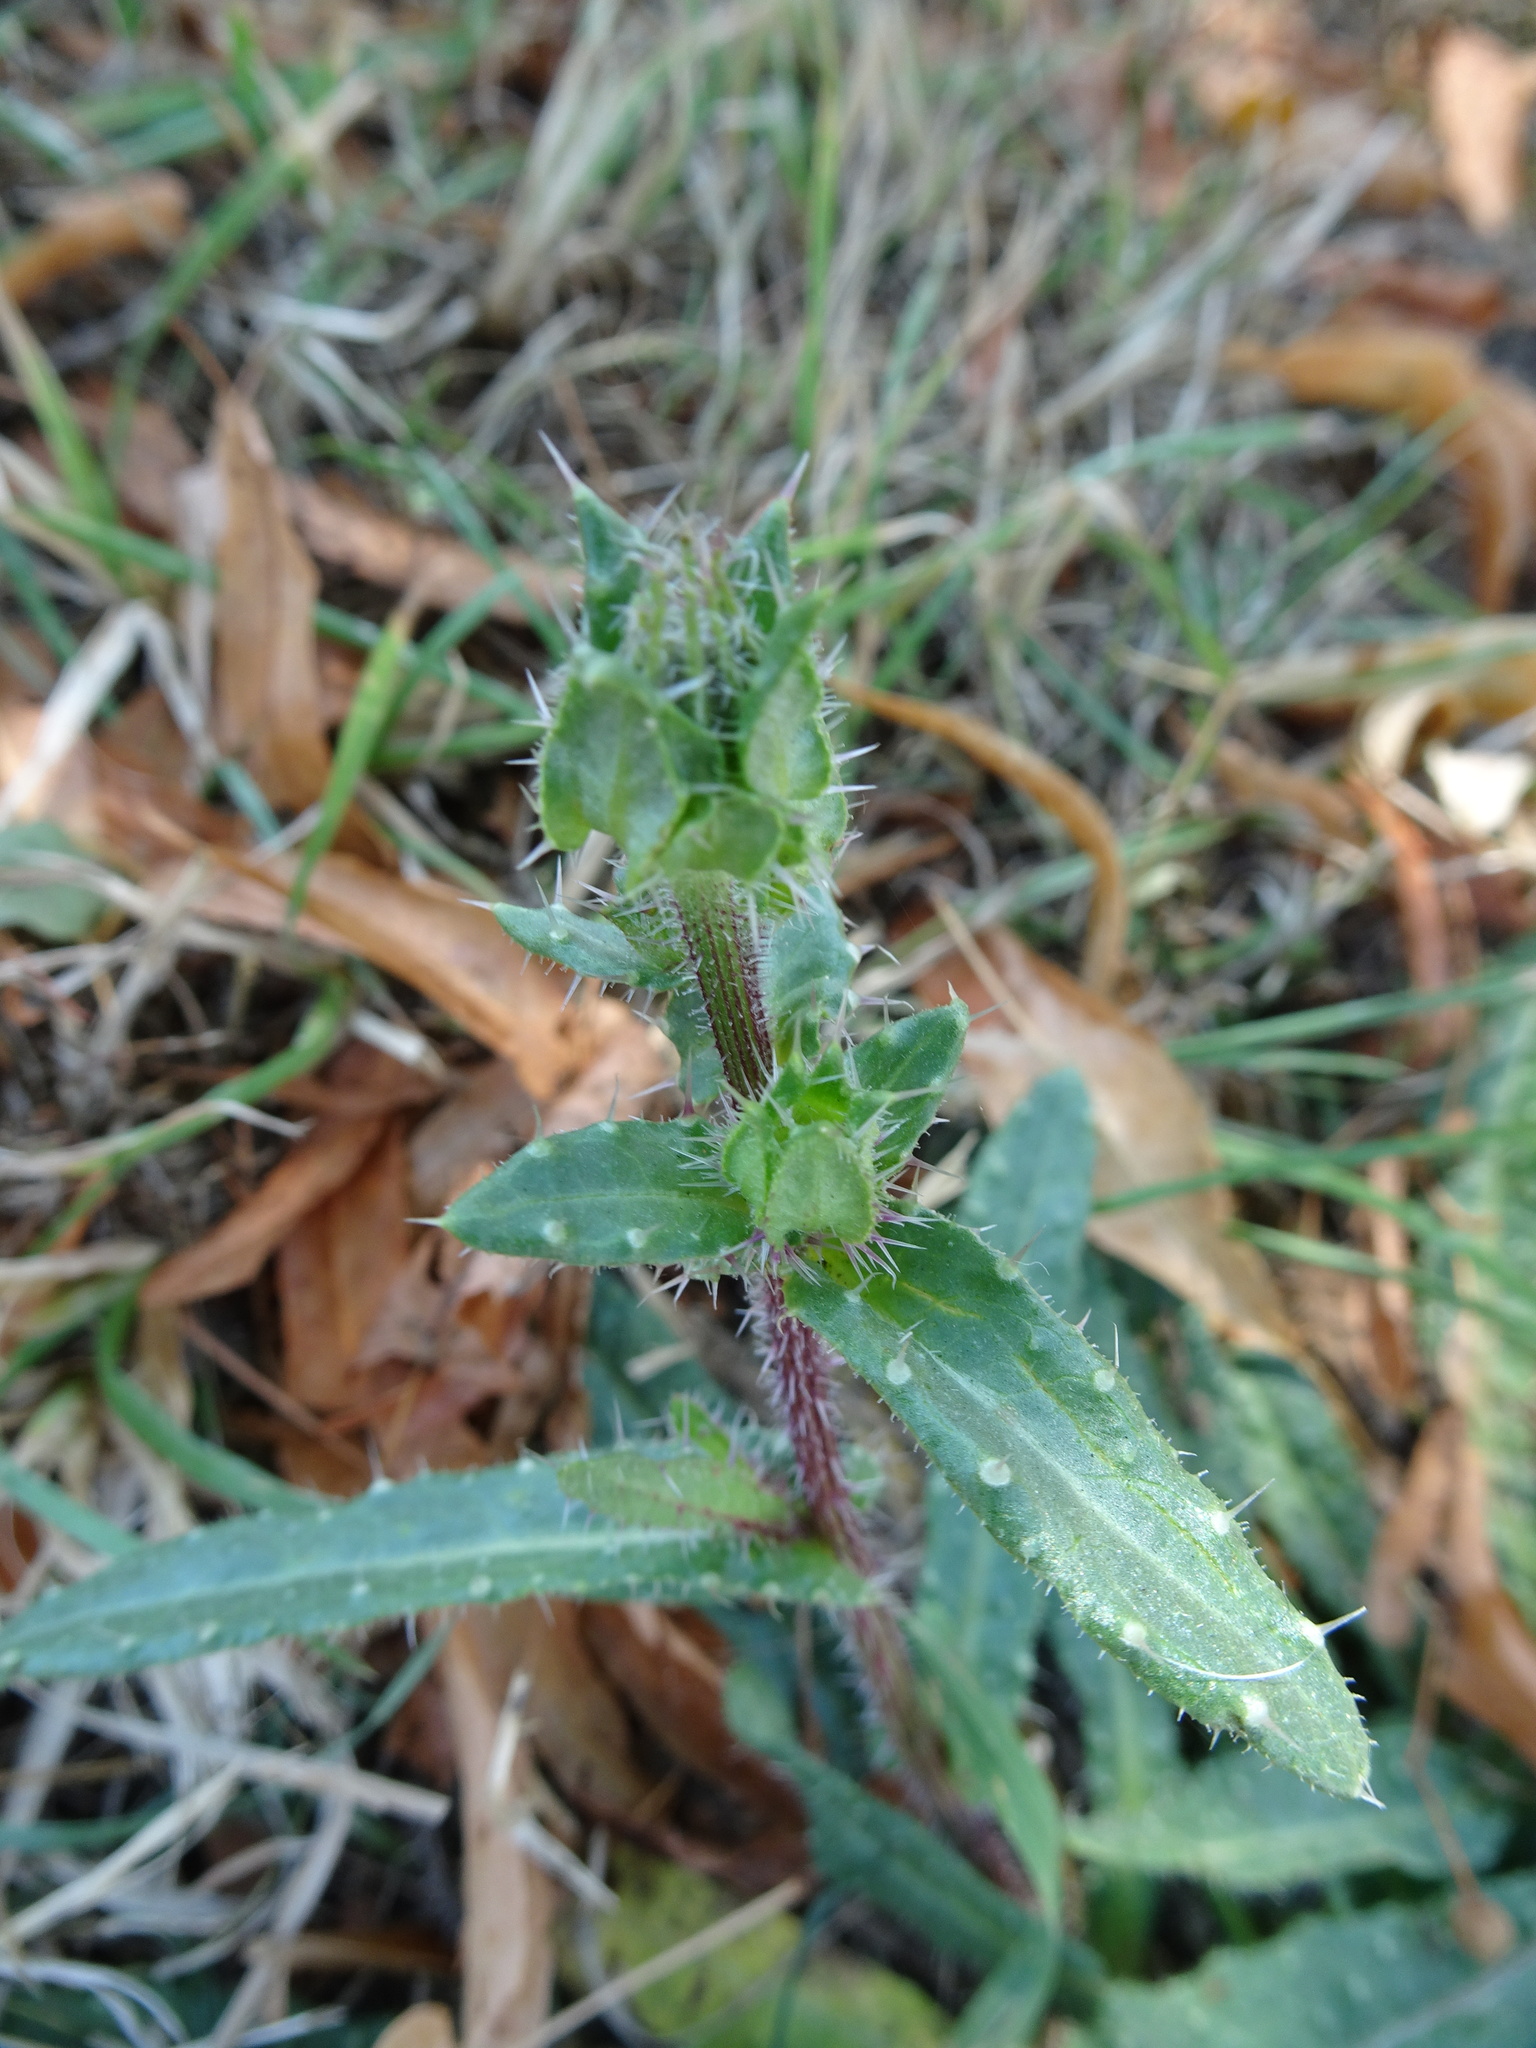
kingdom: Plantae
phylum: Tracheophyta
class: Magnoliopsida
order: Asterales
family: Asteraceae
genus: Helminthotheca
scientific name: Helminthotheca echioides
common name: Ox-tongue
